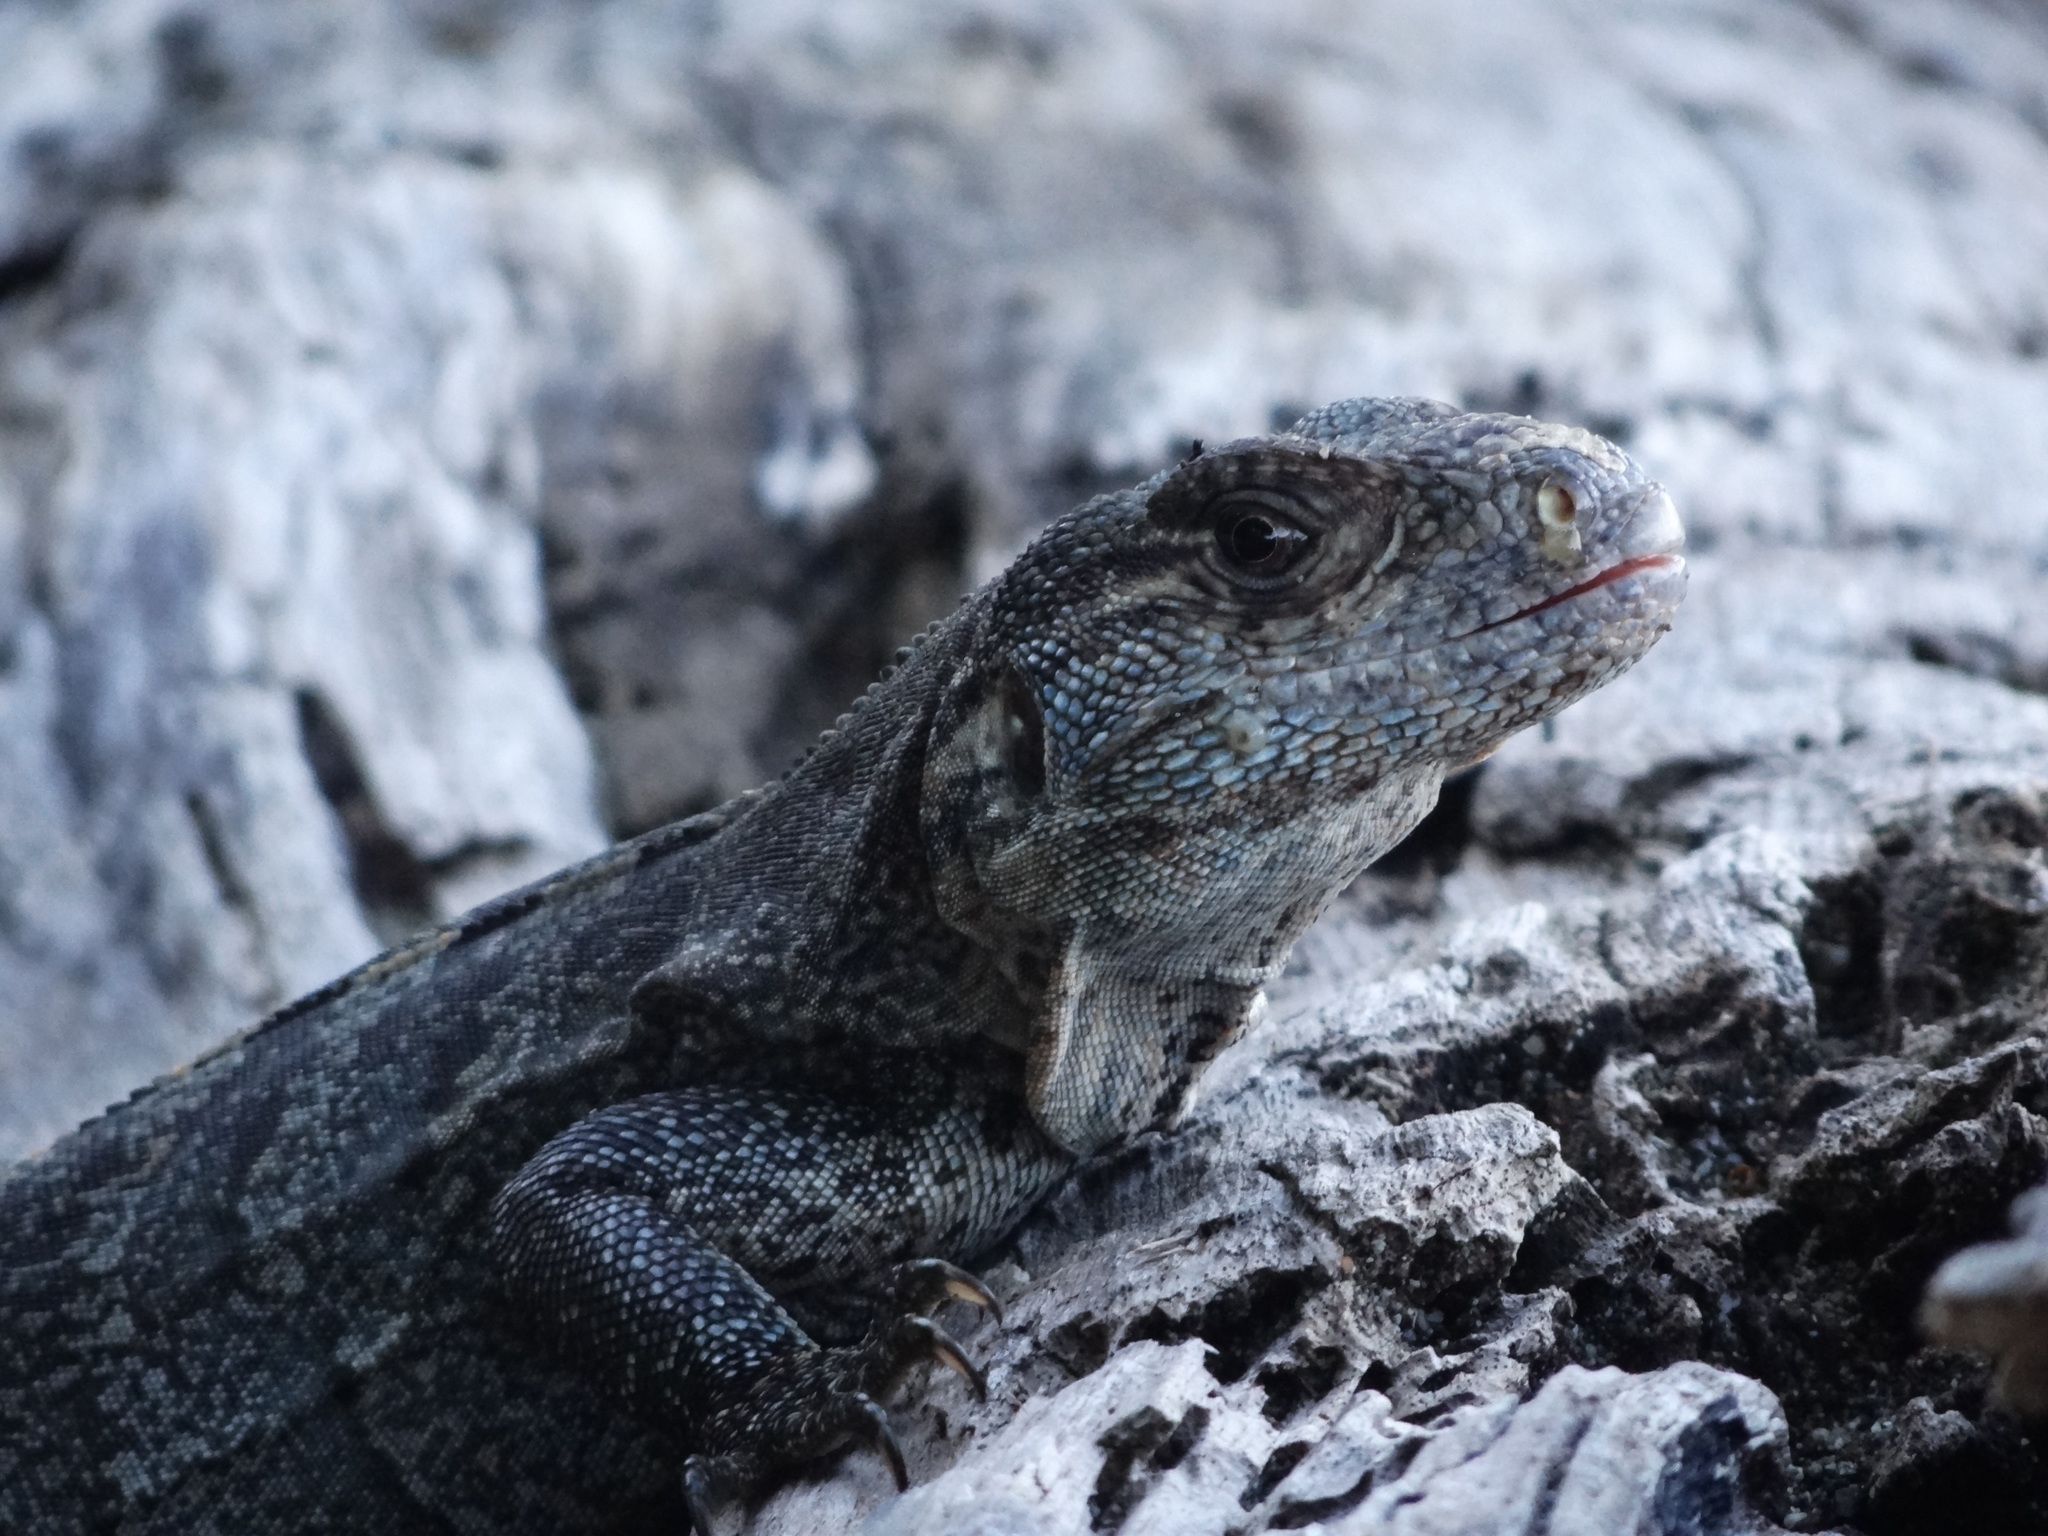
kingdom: Animalia
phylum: Chordata
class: Squamata
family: Iguanidae
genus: Ctenosaura
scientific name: Ctenosaura similis
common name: Black spiny-tailed iguana
